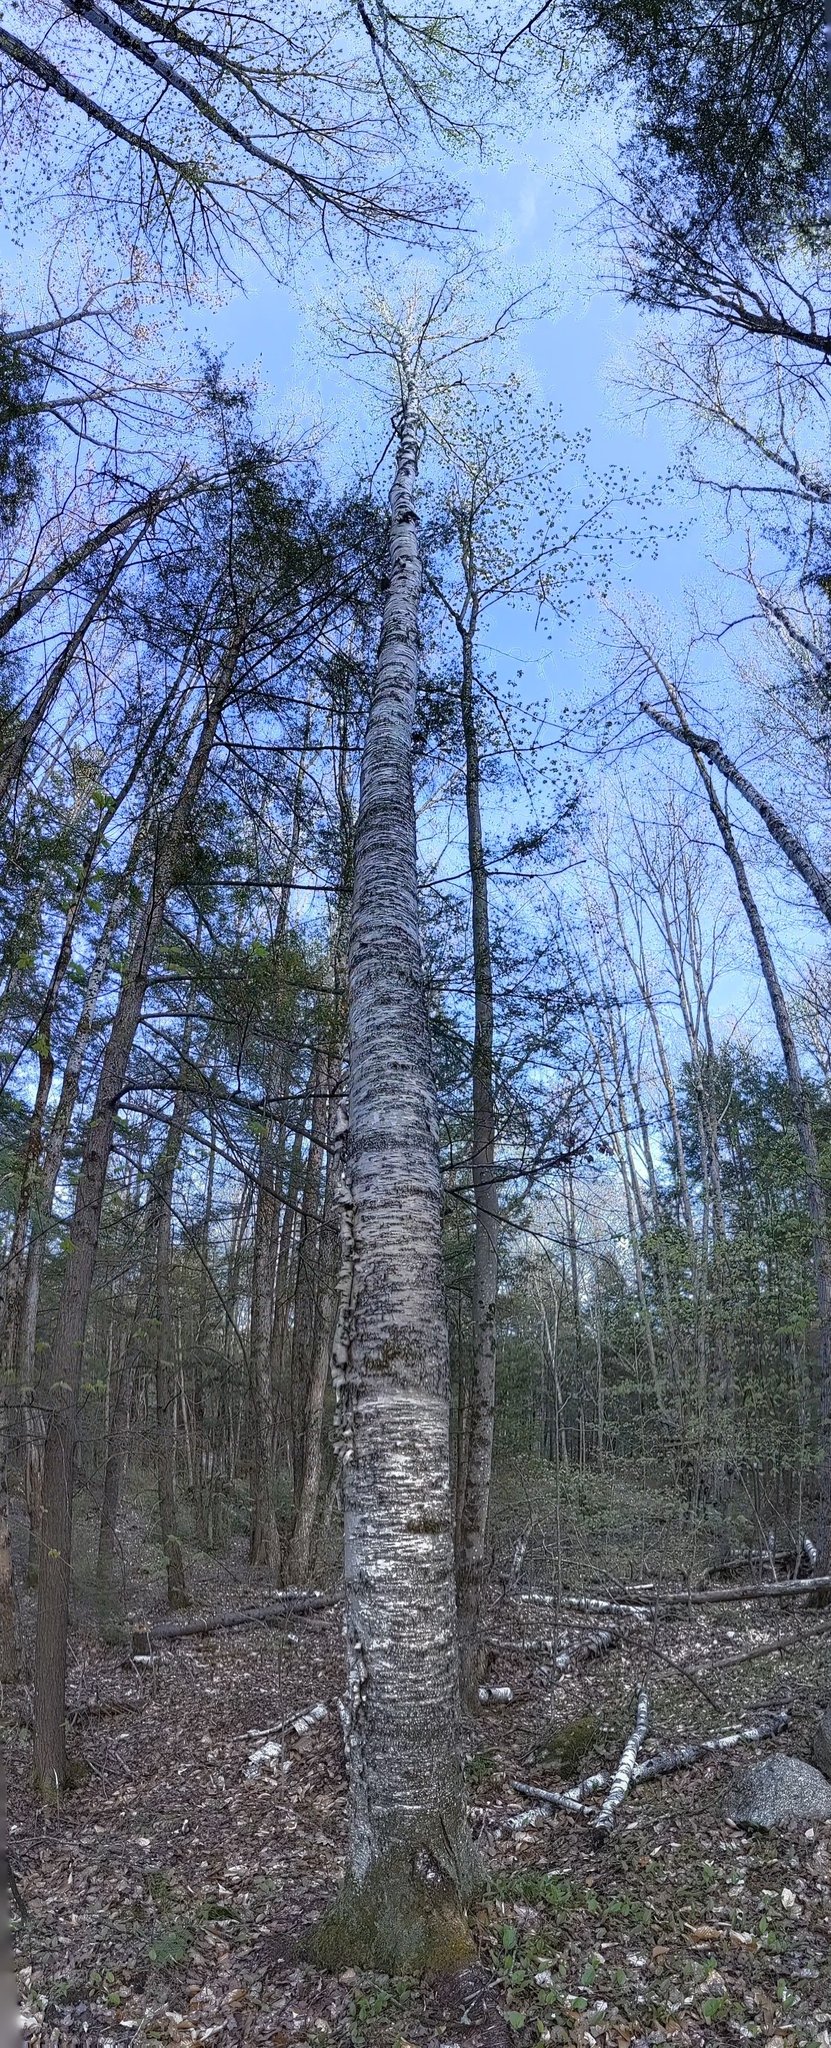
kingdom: Plantae
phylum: Tracheophyta
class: Magnoliopsida
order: Fagales
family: Betulaceae
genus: Betula
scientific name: Betula alleghaniensis
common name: Yellow birch
